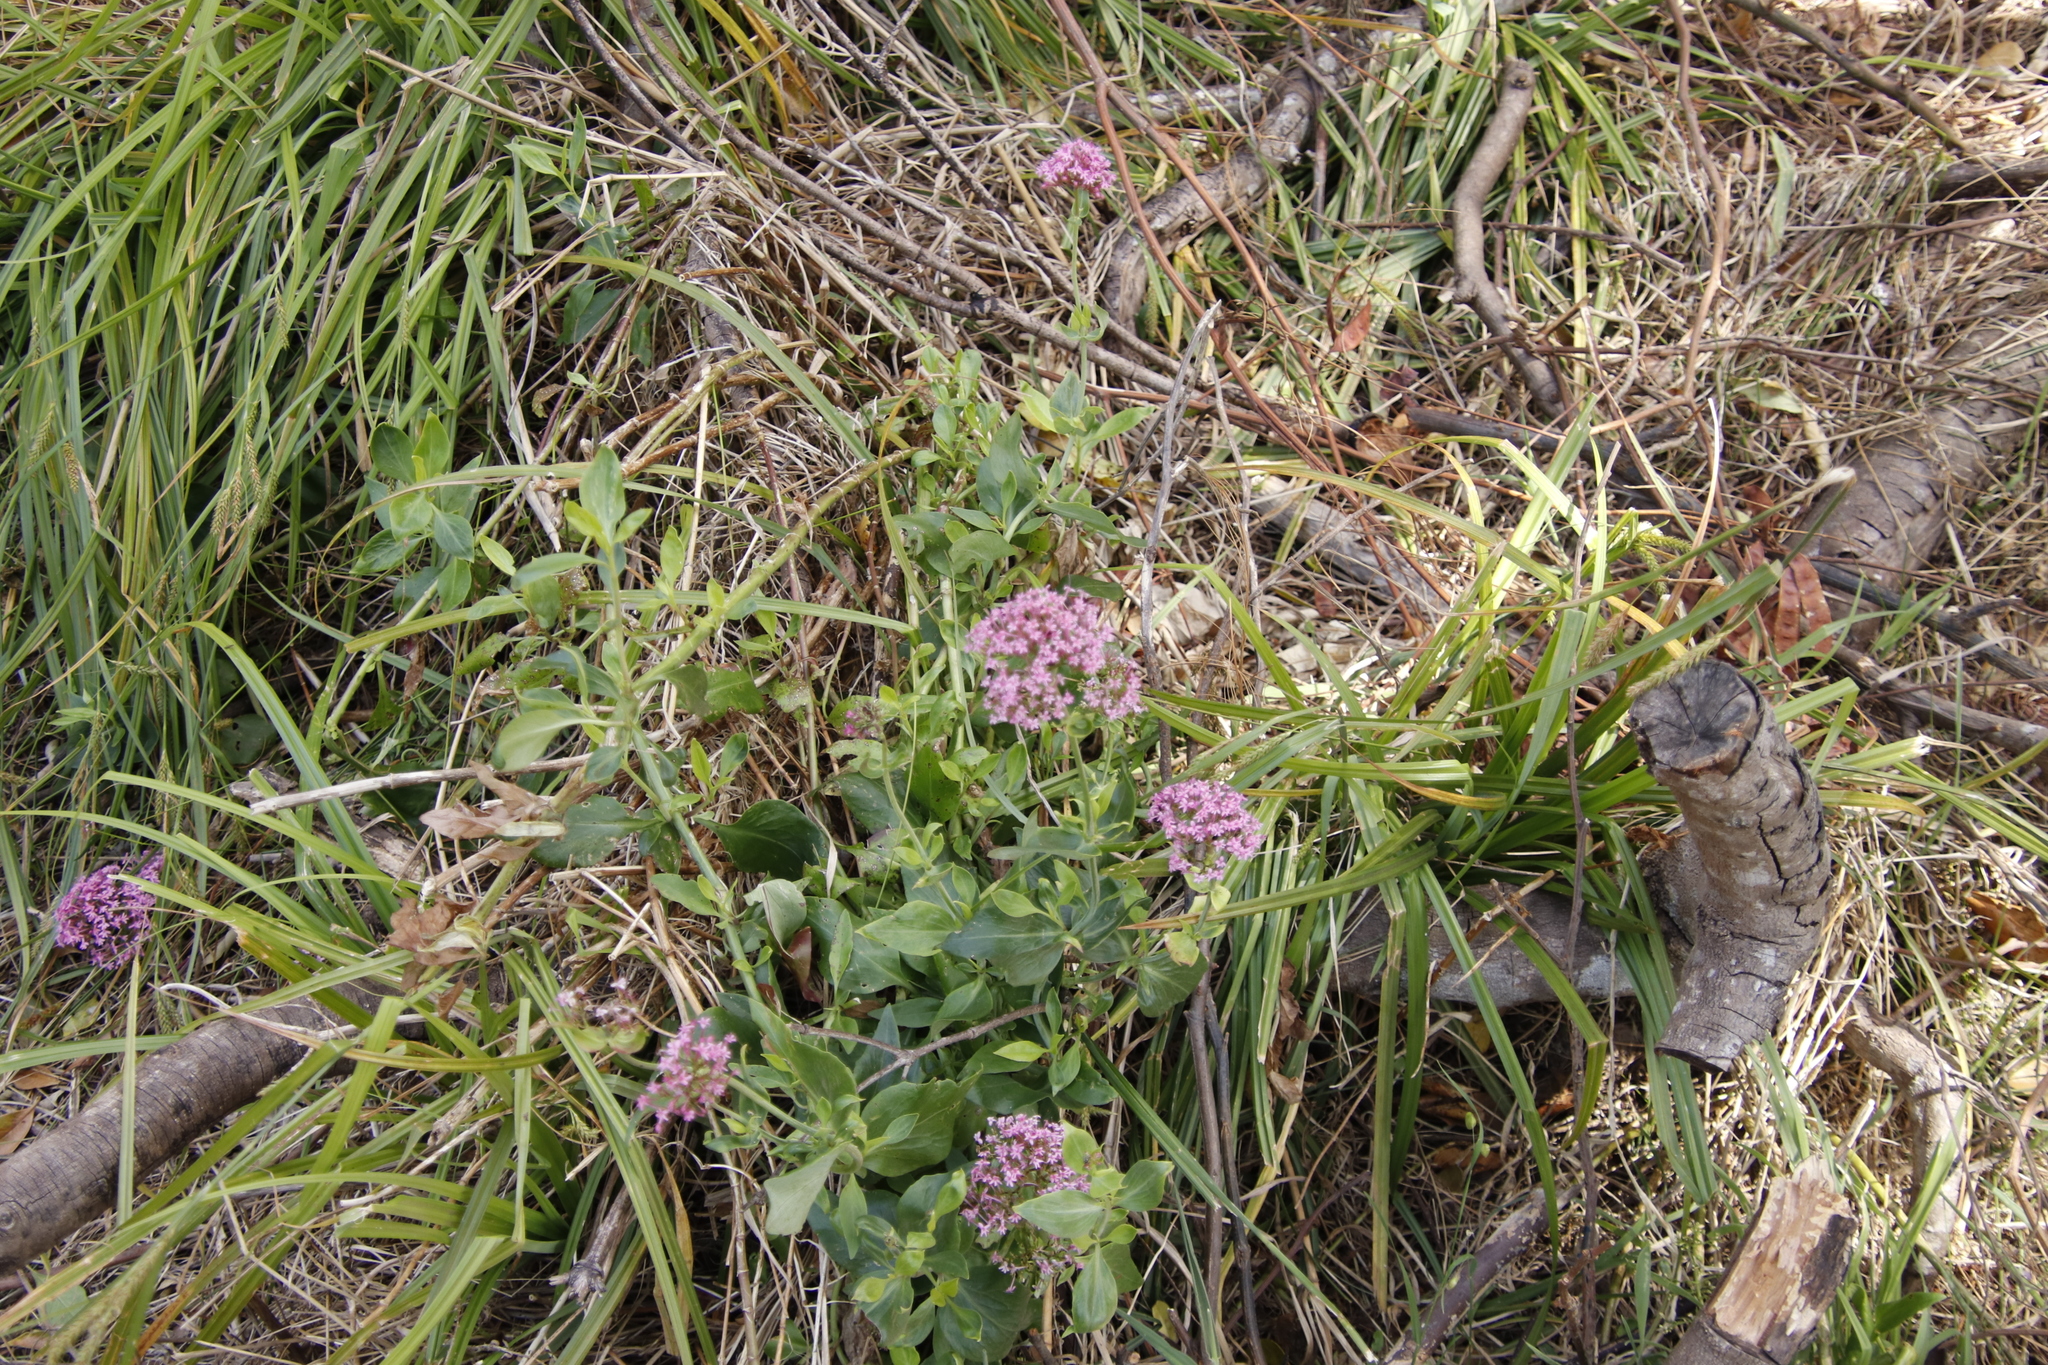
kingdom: Plantae
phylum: Tracheophyta
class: Magnoliopsida
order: Dipsacales
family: Caprifoliaceae
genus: Centranthus
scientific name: Centranthus ruber
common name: Red valerian
